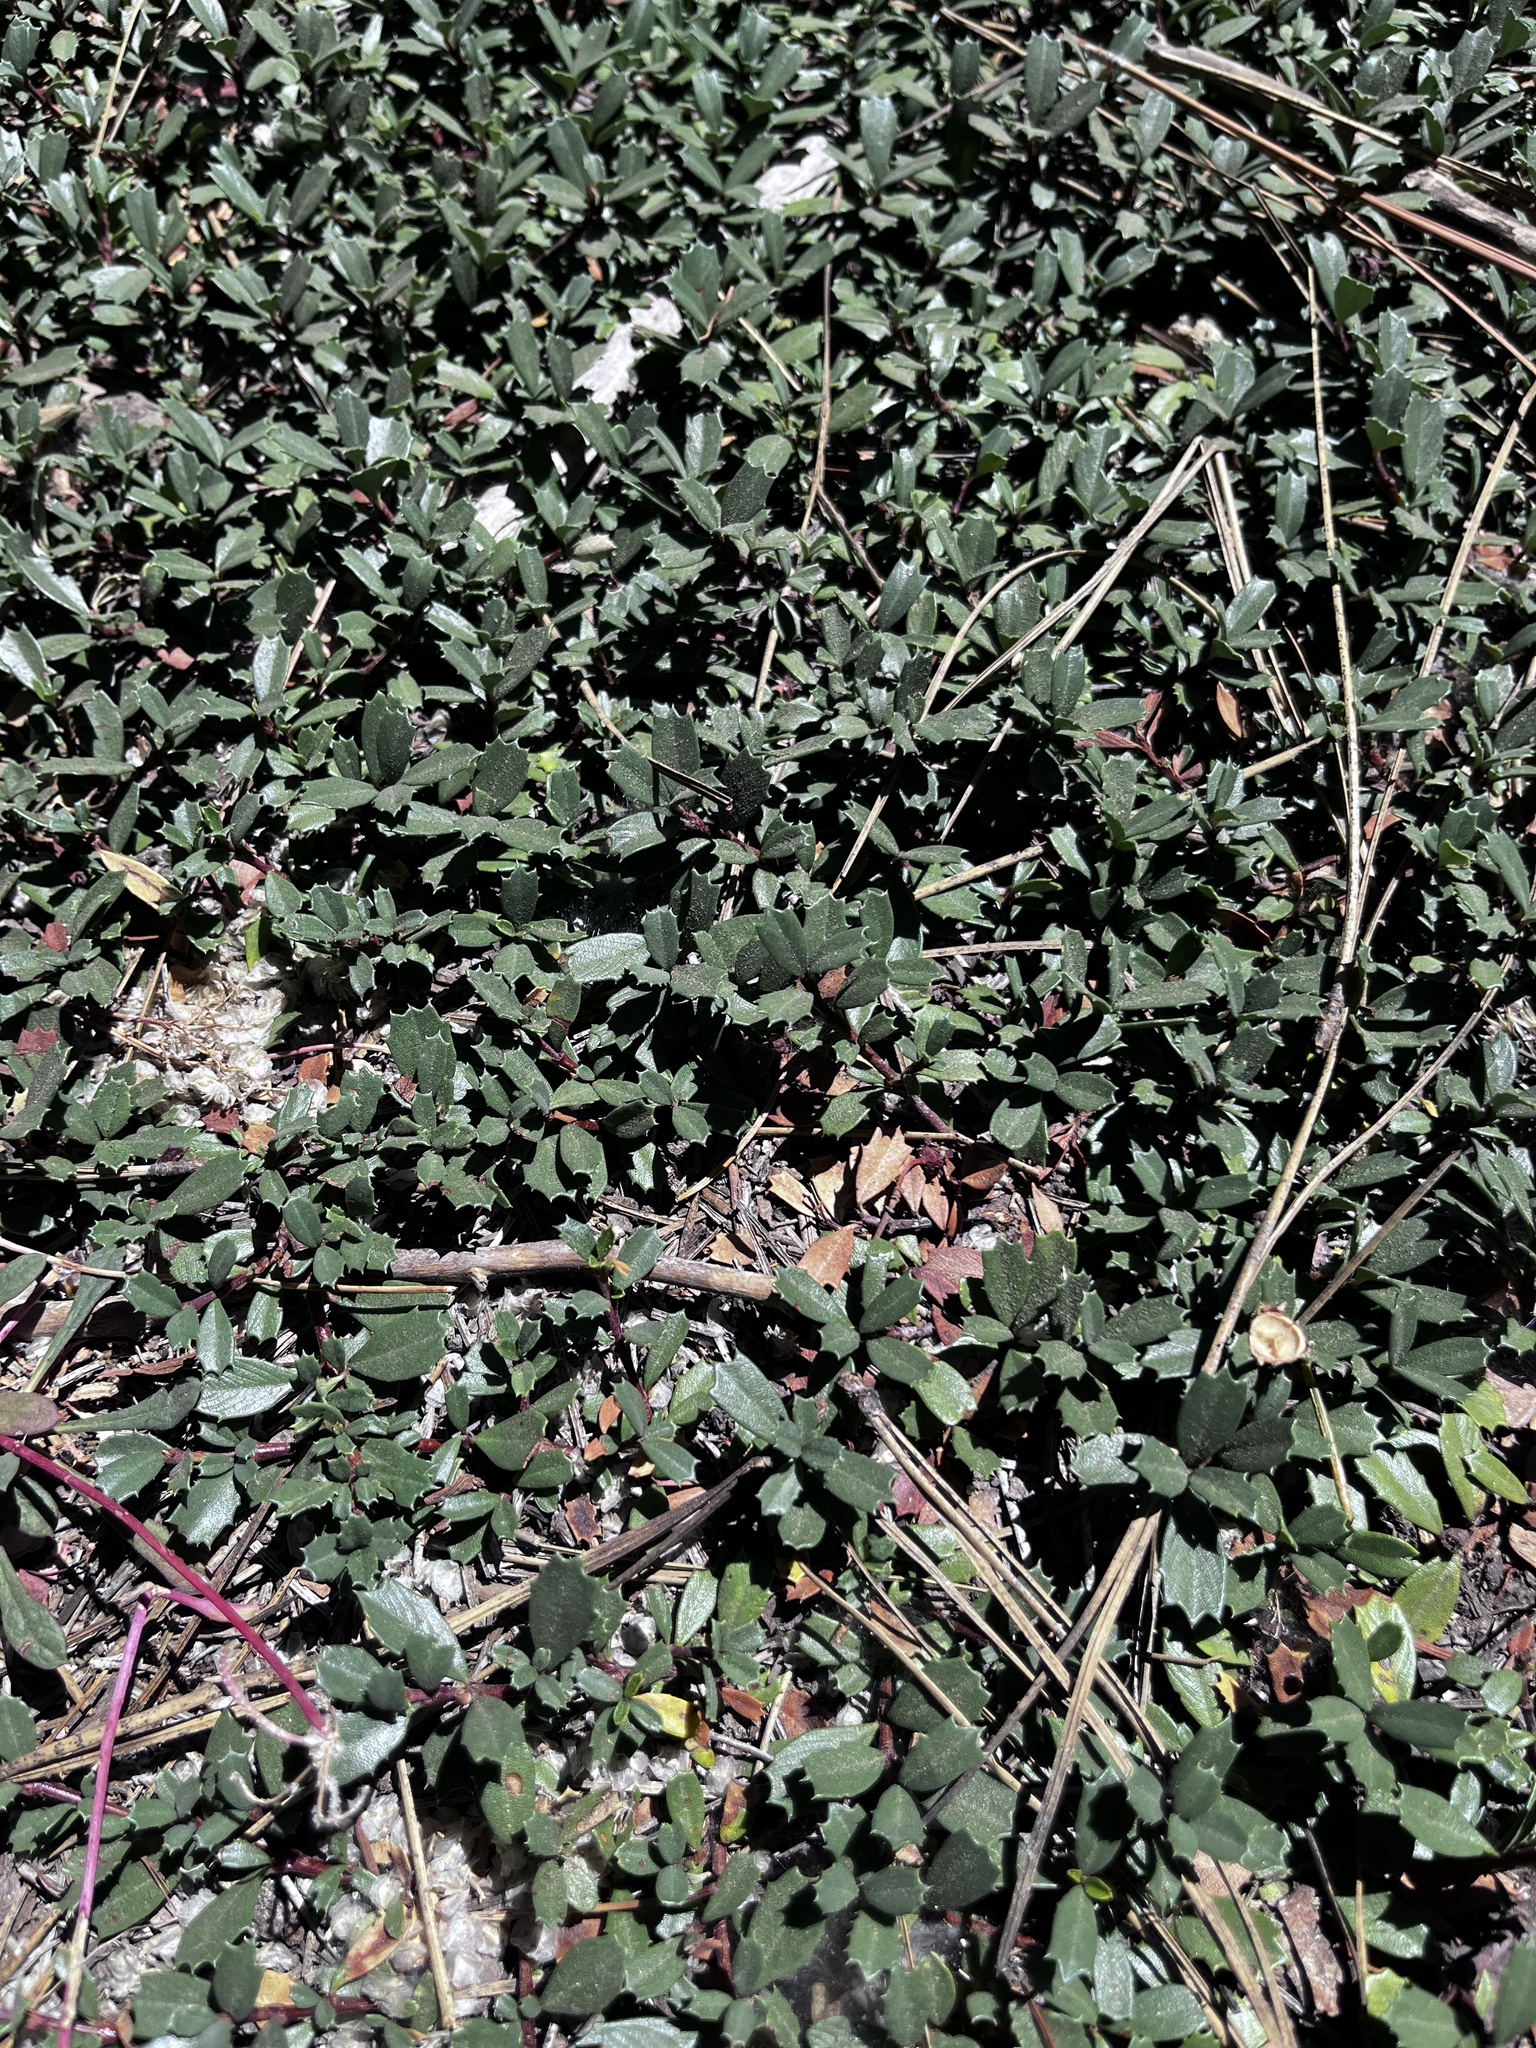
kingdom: Plantae
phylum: Tracheophyta
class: Magnoliopsida
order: Rosales
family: Rhamnaceae
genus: Ceanothus
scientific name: Ceanothus prostratus
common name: Mahala-mat
